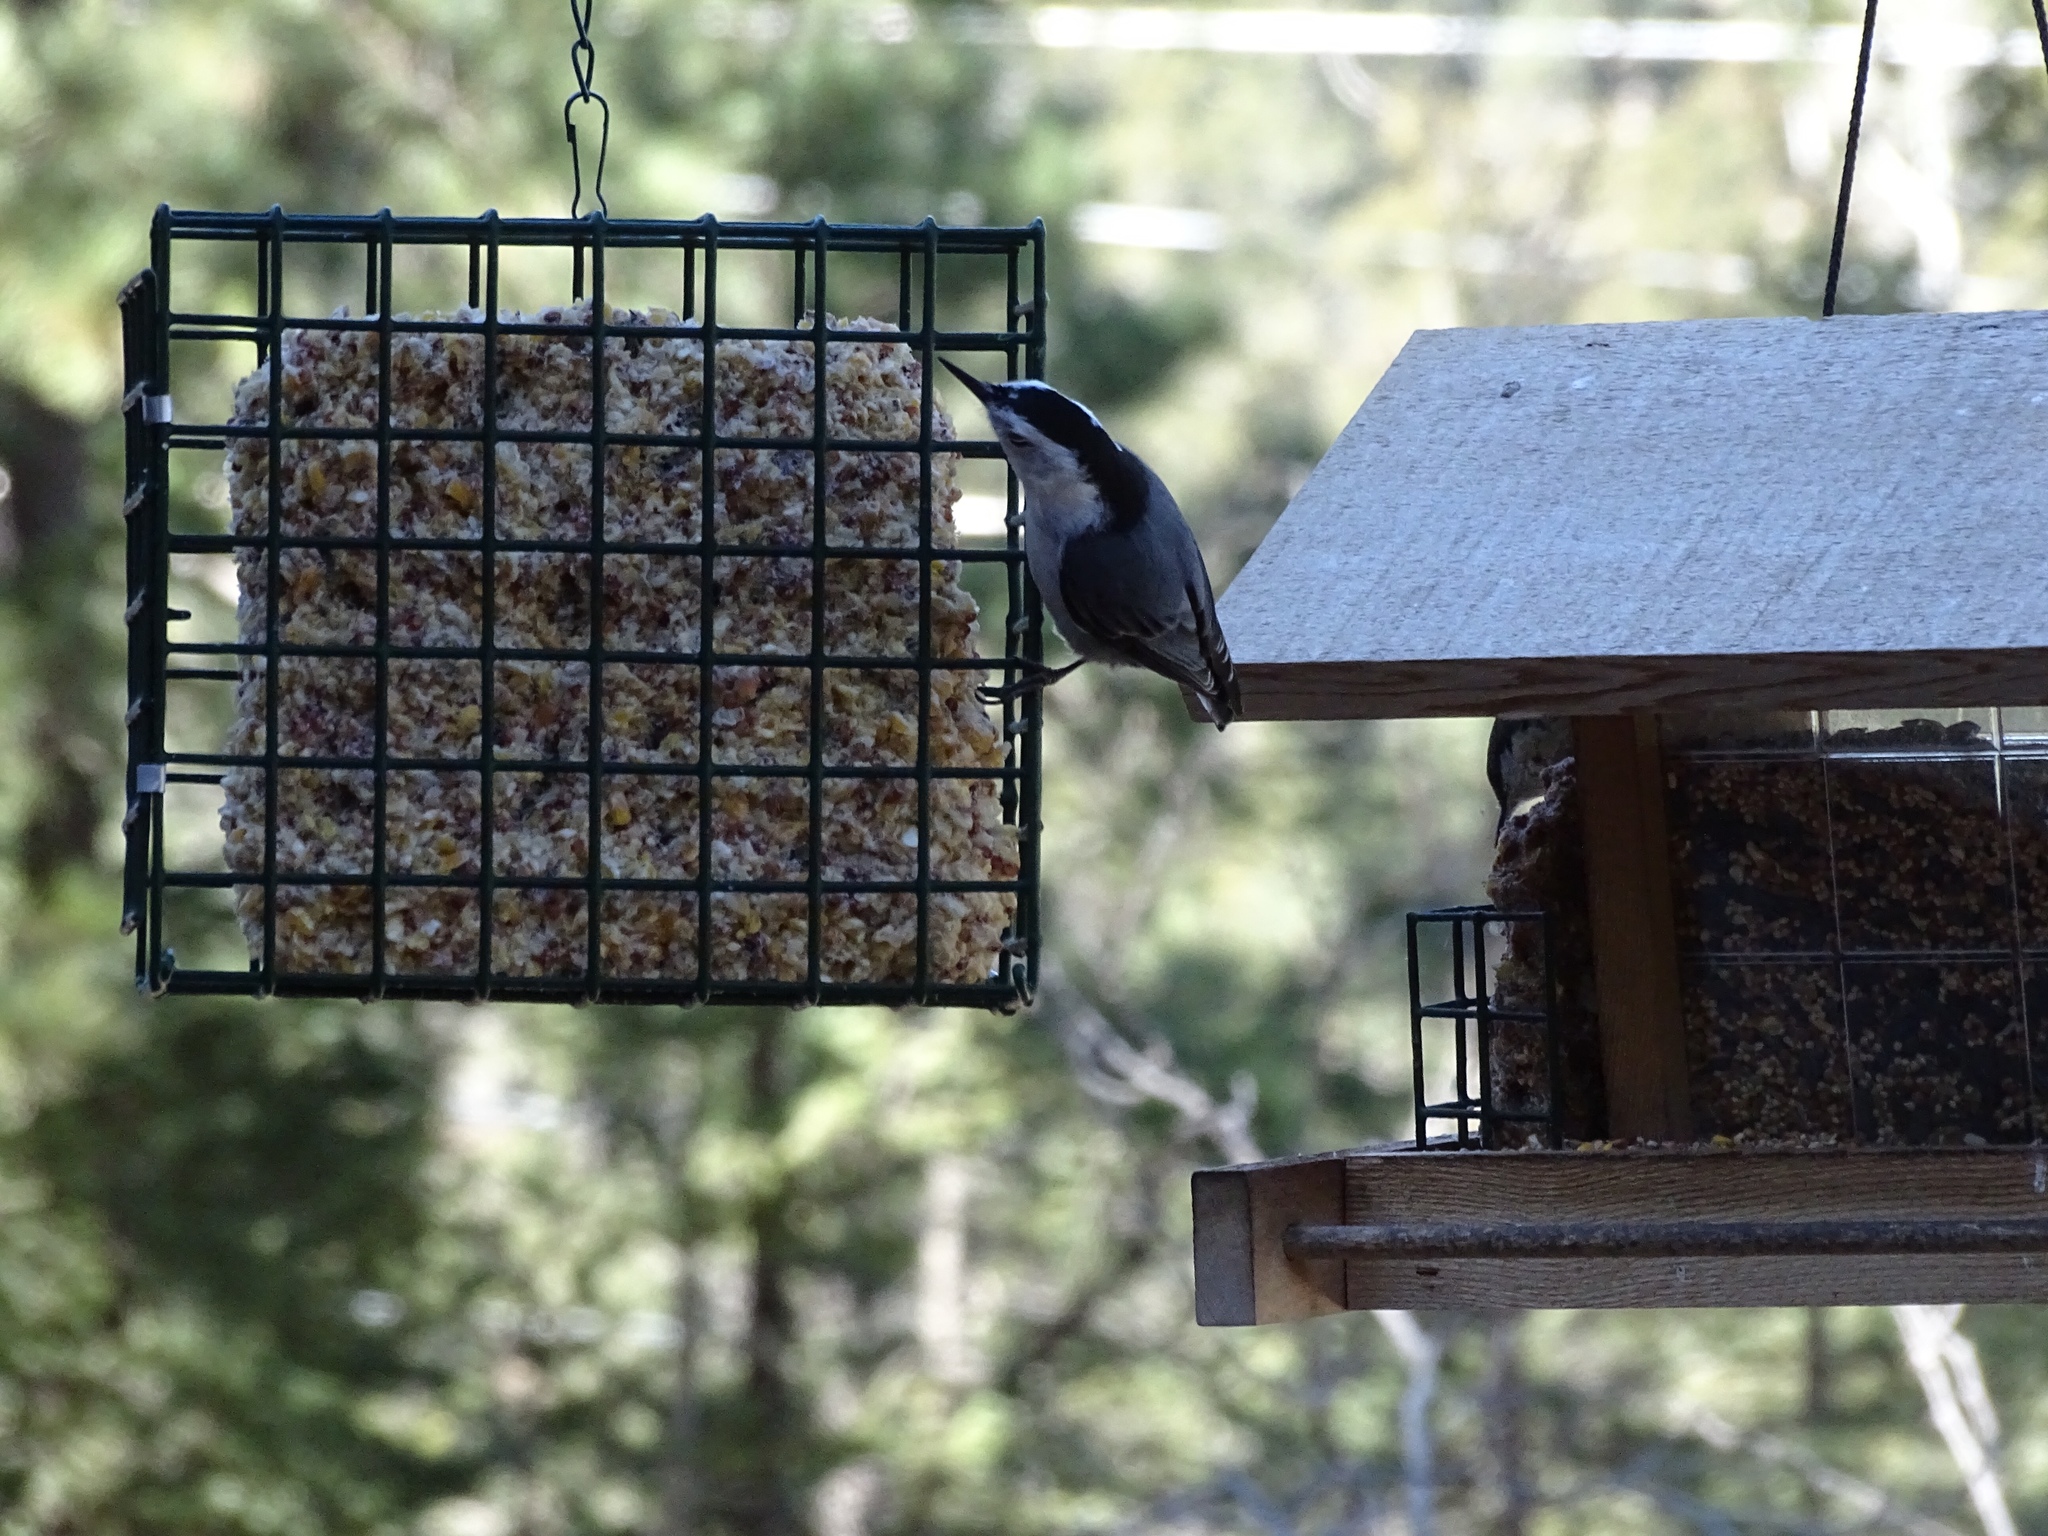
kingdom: Animalia
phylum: Chordata
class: Aves
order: Passeriformes
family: Sittidae
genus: Sitta
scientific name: Sitta carolinensis
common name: White-breasted nuthatch
